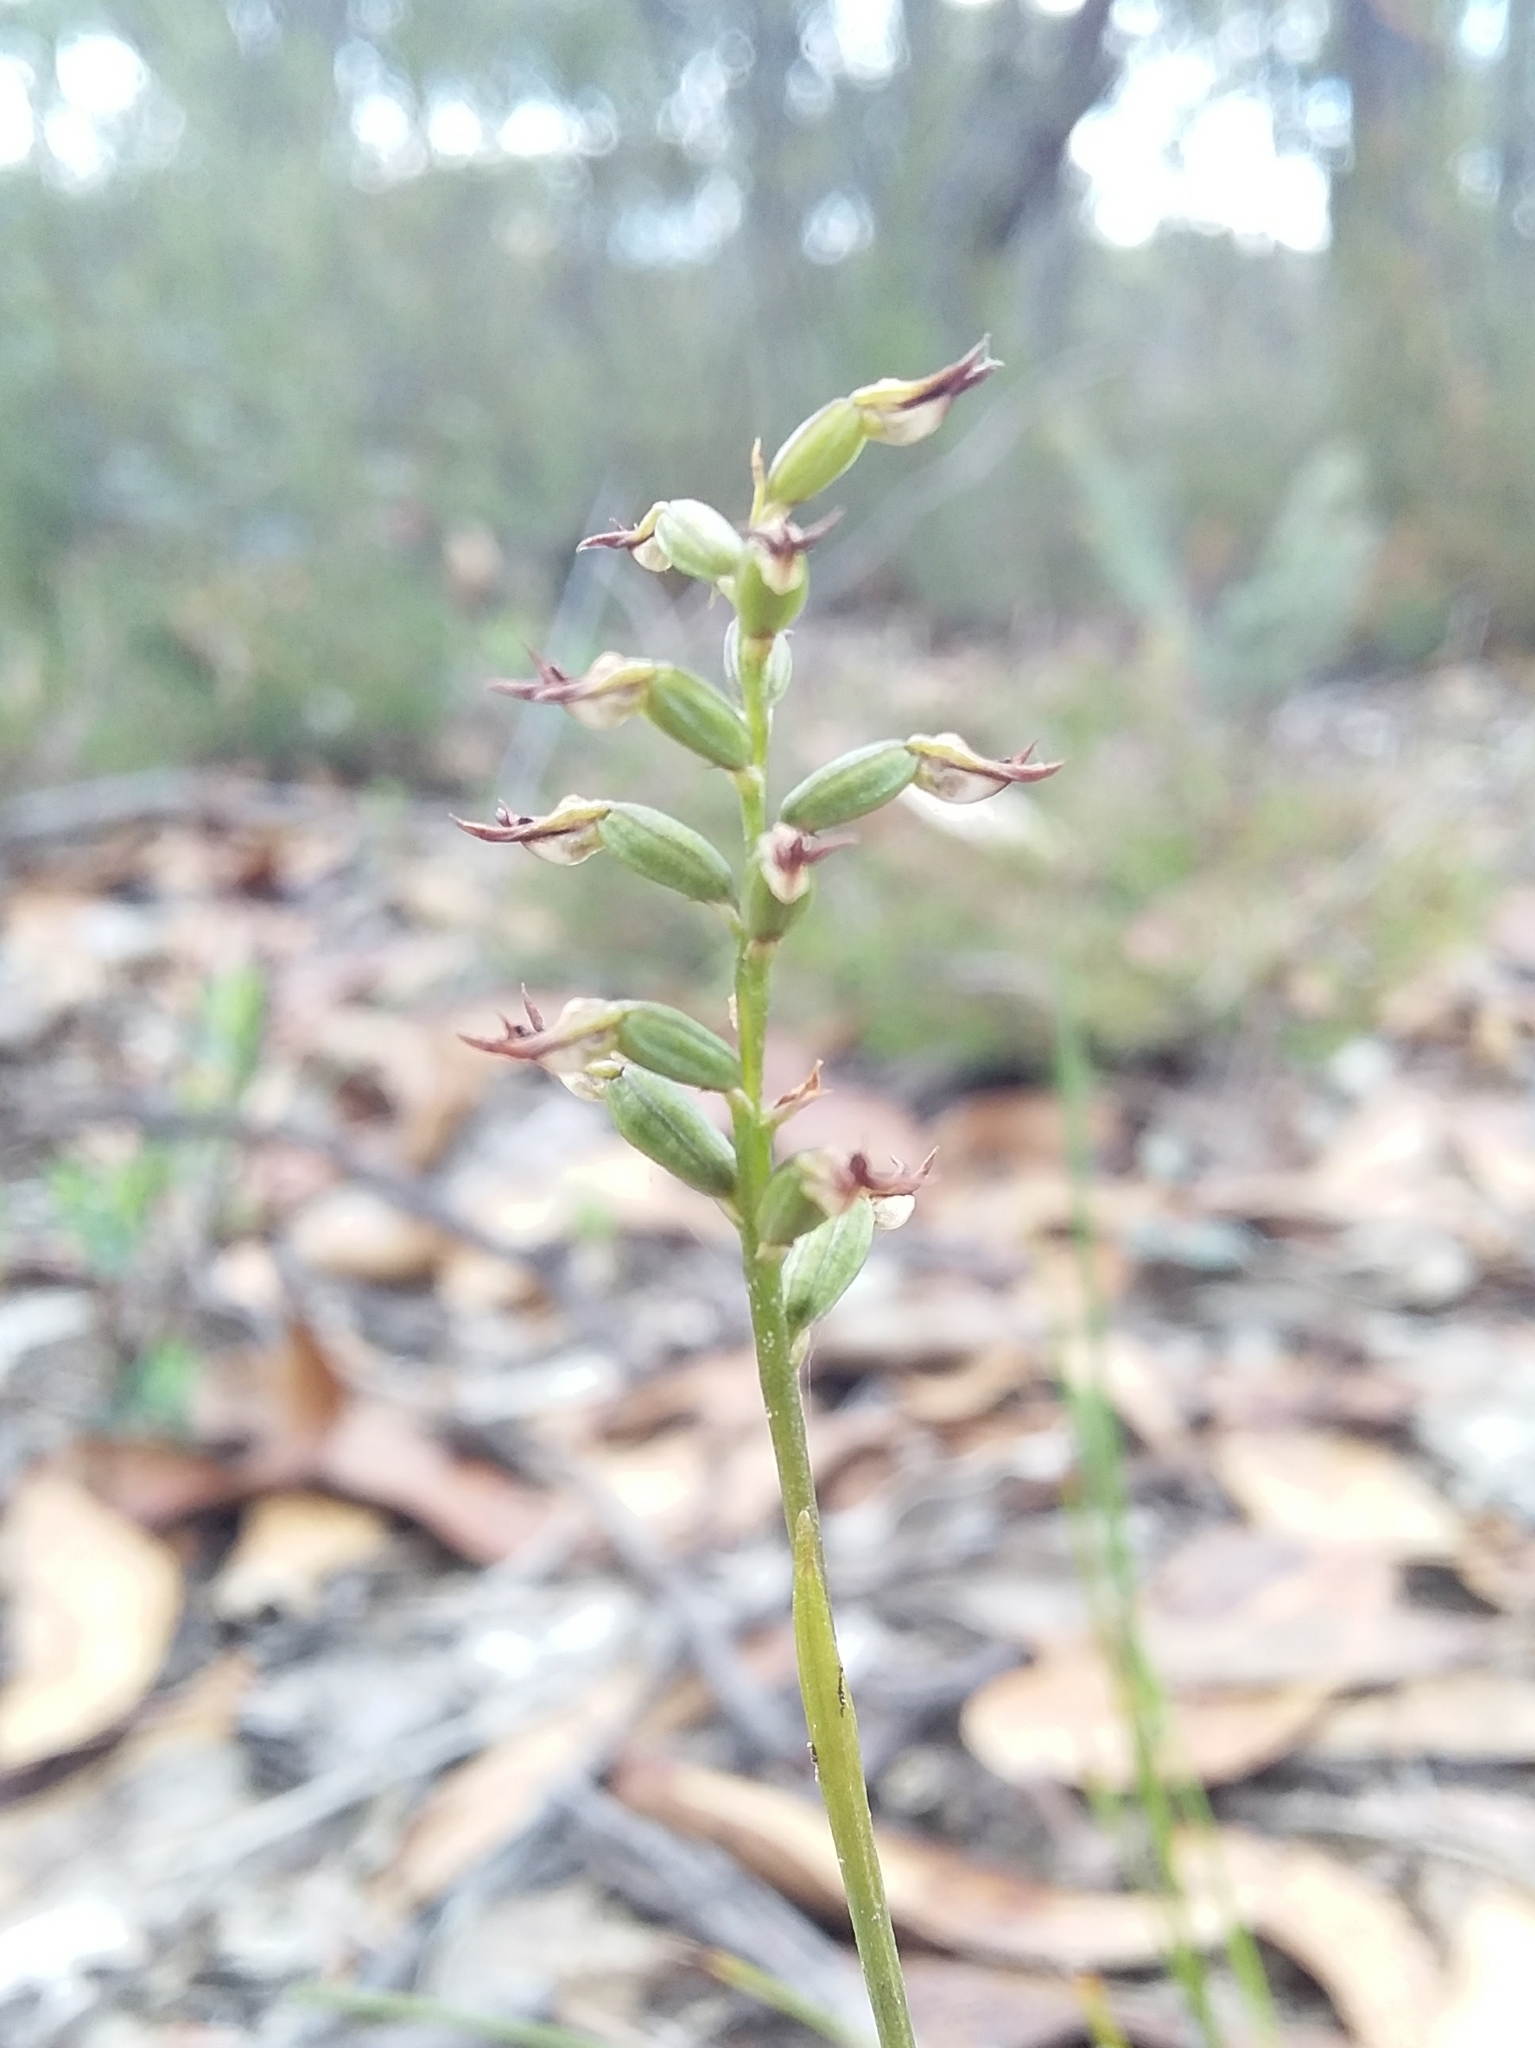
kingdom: Plantae
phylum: Tracheophyta
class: Liliopsida
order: Asparagales
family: Orchidaceae
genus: Genoplesium
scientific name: Genoplesium rufum
